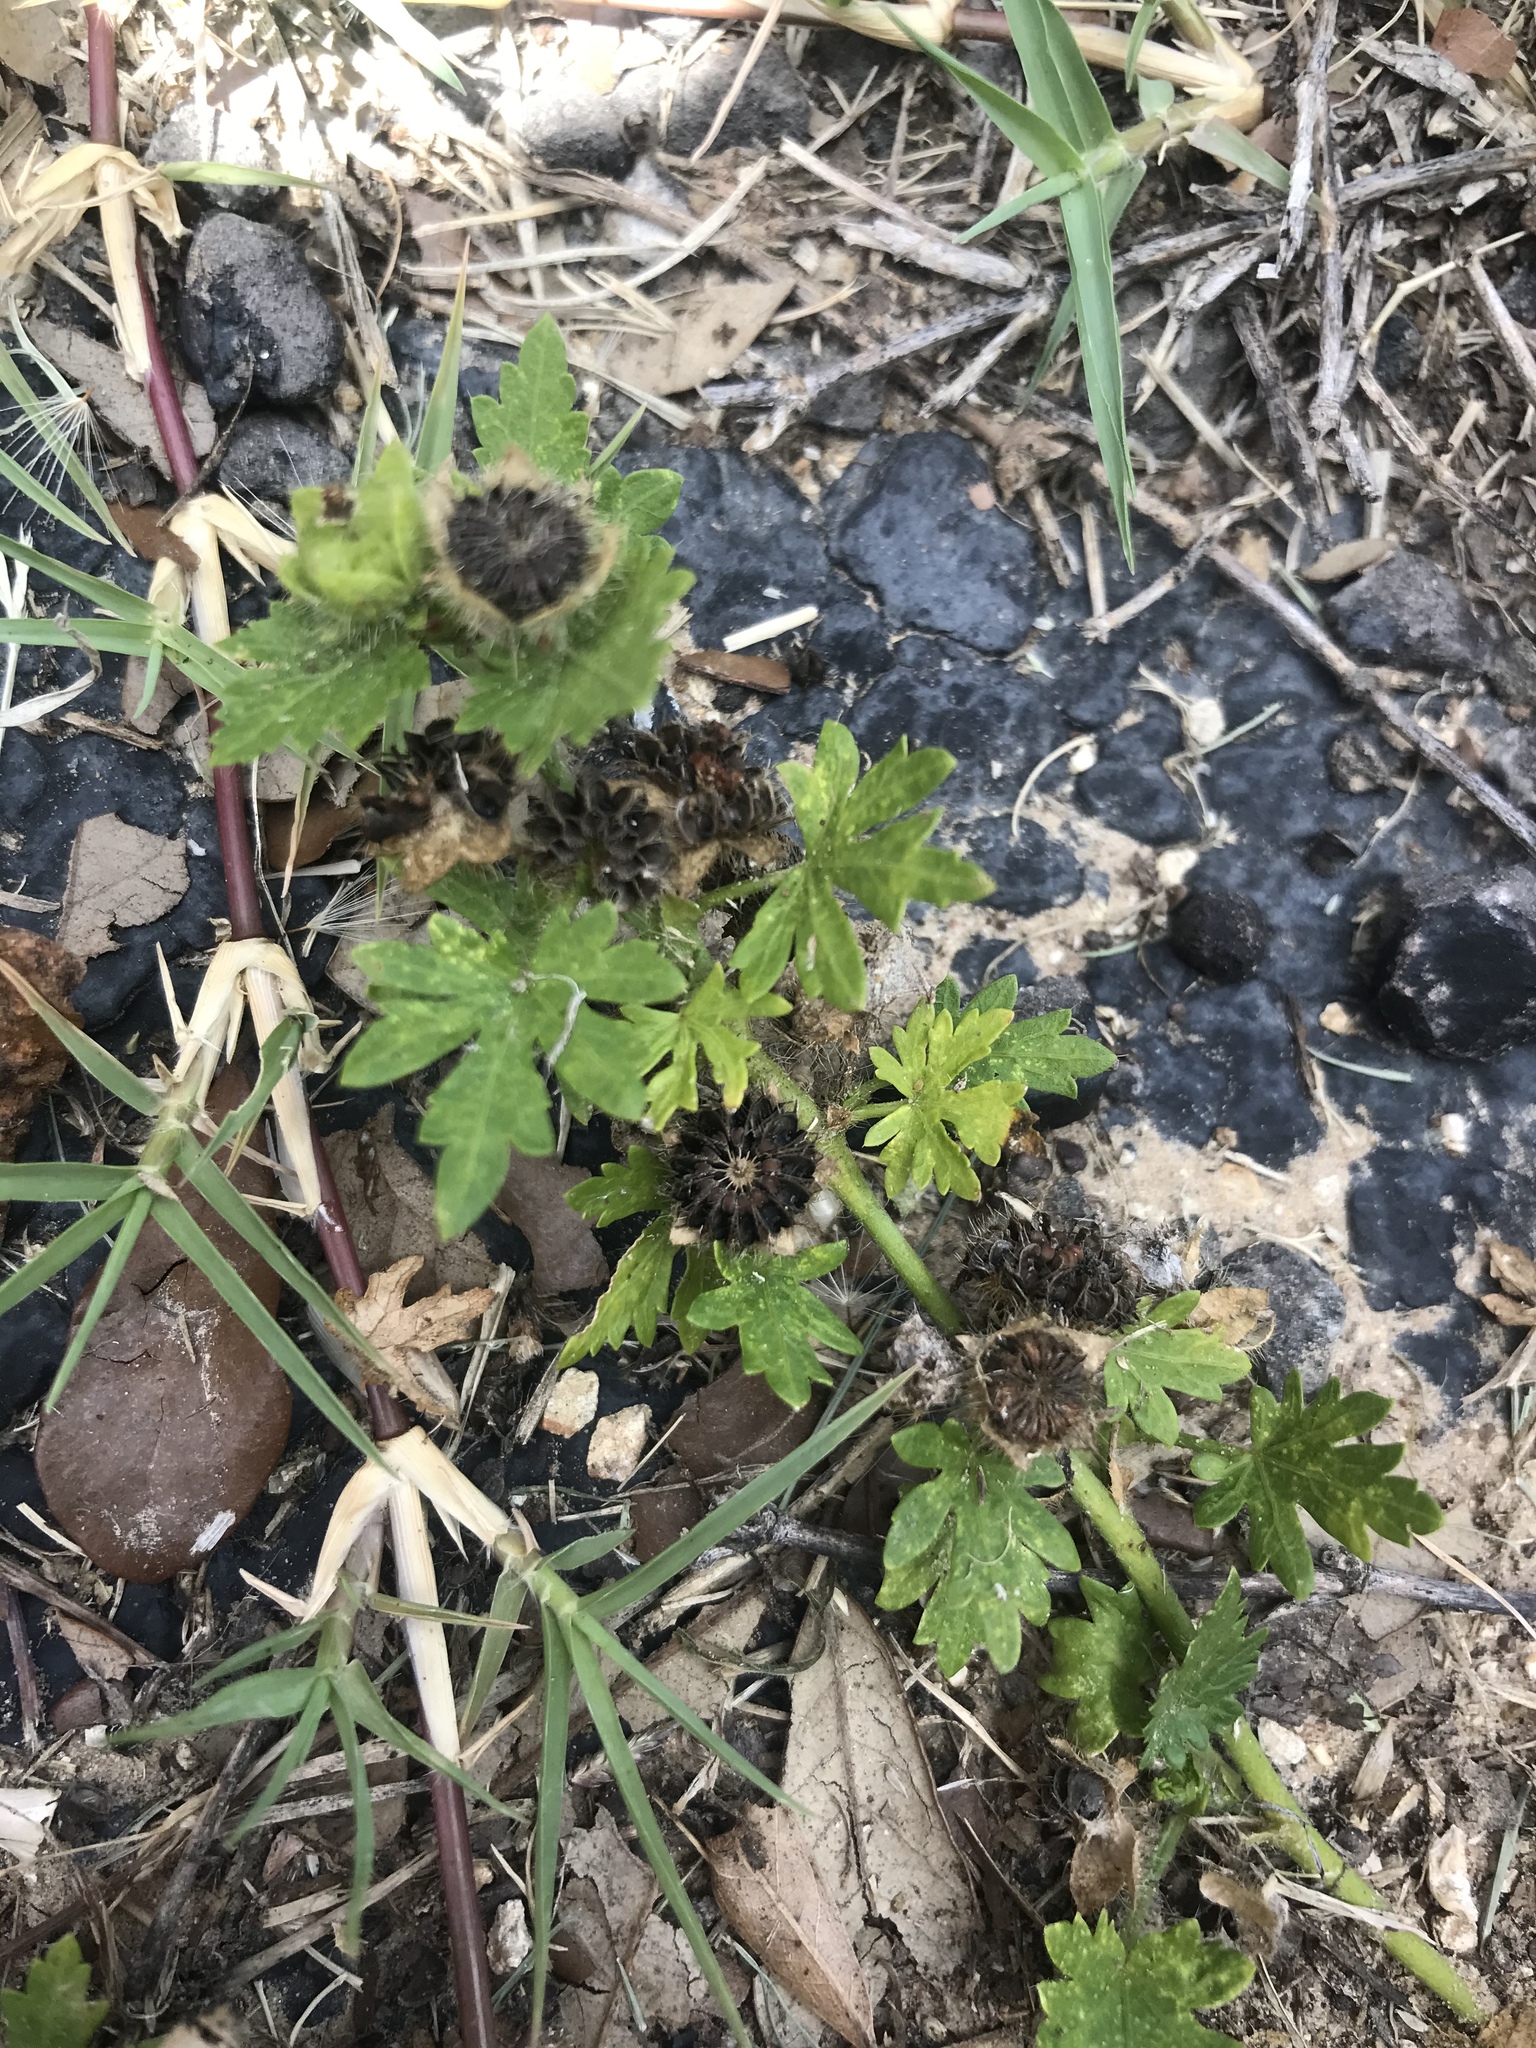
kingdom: Plantae
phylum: Tracheophyta
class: Magnoliopsida
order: Malvales
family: Malvaceae
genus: Modiola
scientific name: Modiola caroliniana
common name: Carolina bristlemallow
